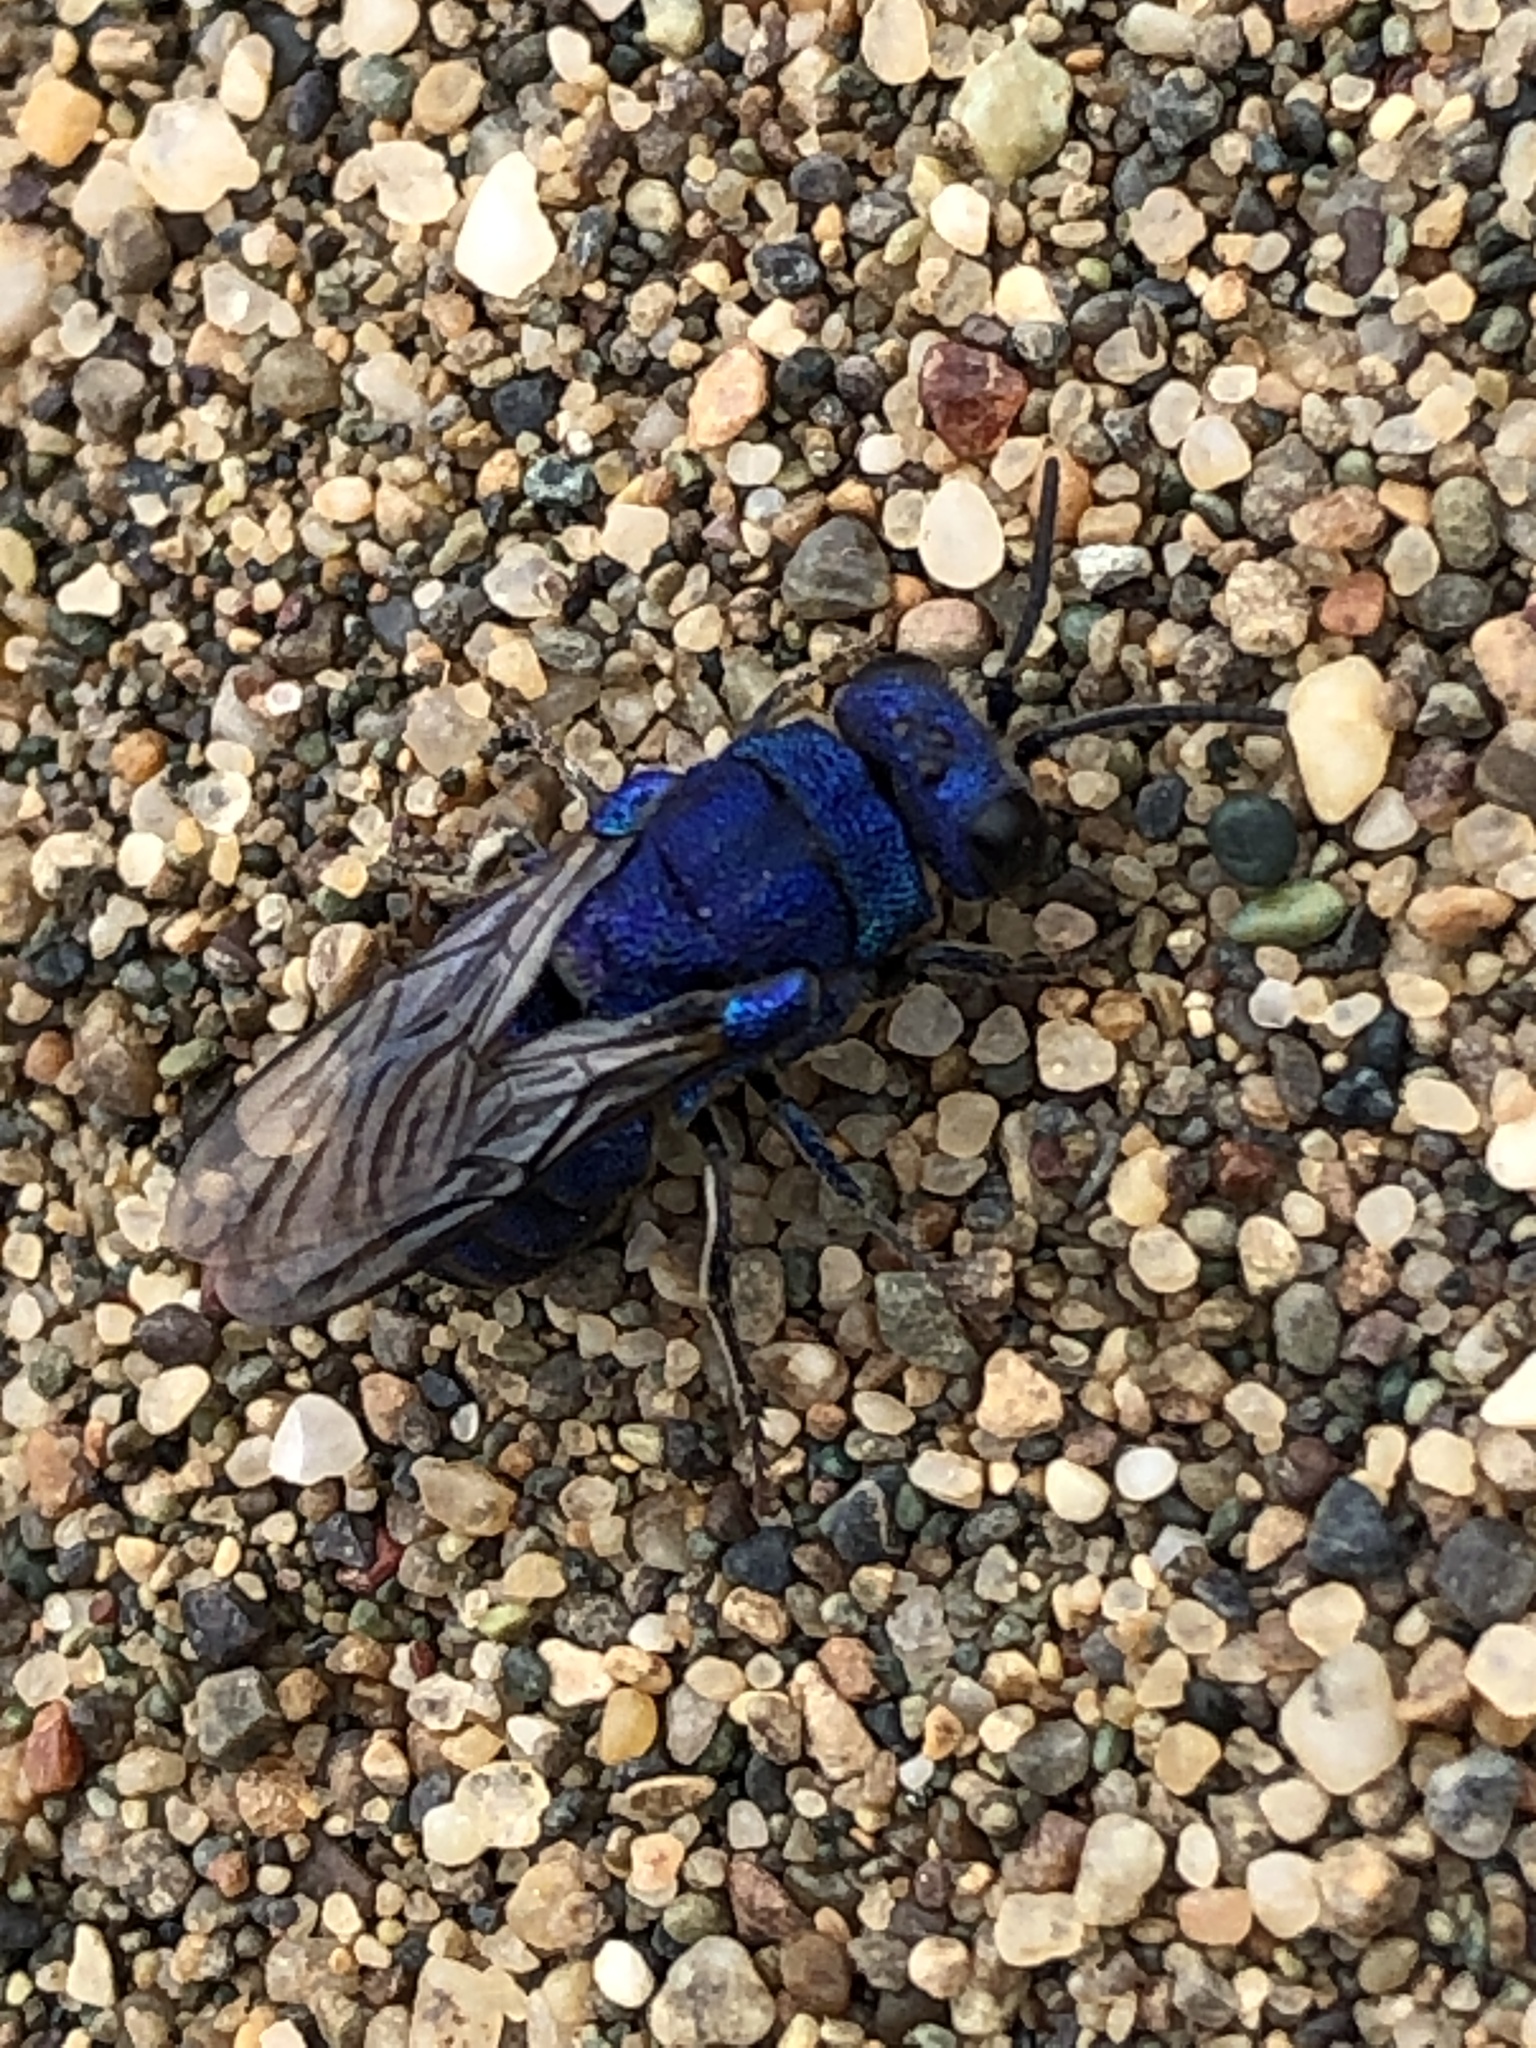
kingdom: Animalia
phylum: Arthropoda
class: Insecta
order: Hymenoptera
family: Chrysididae
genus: Parnopes
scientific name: Parnopes
